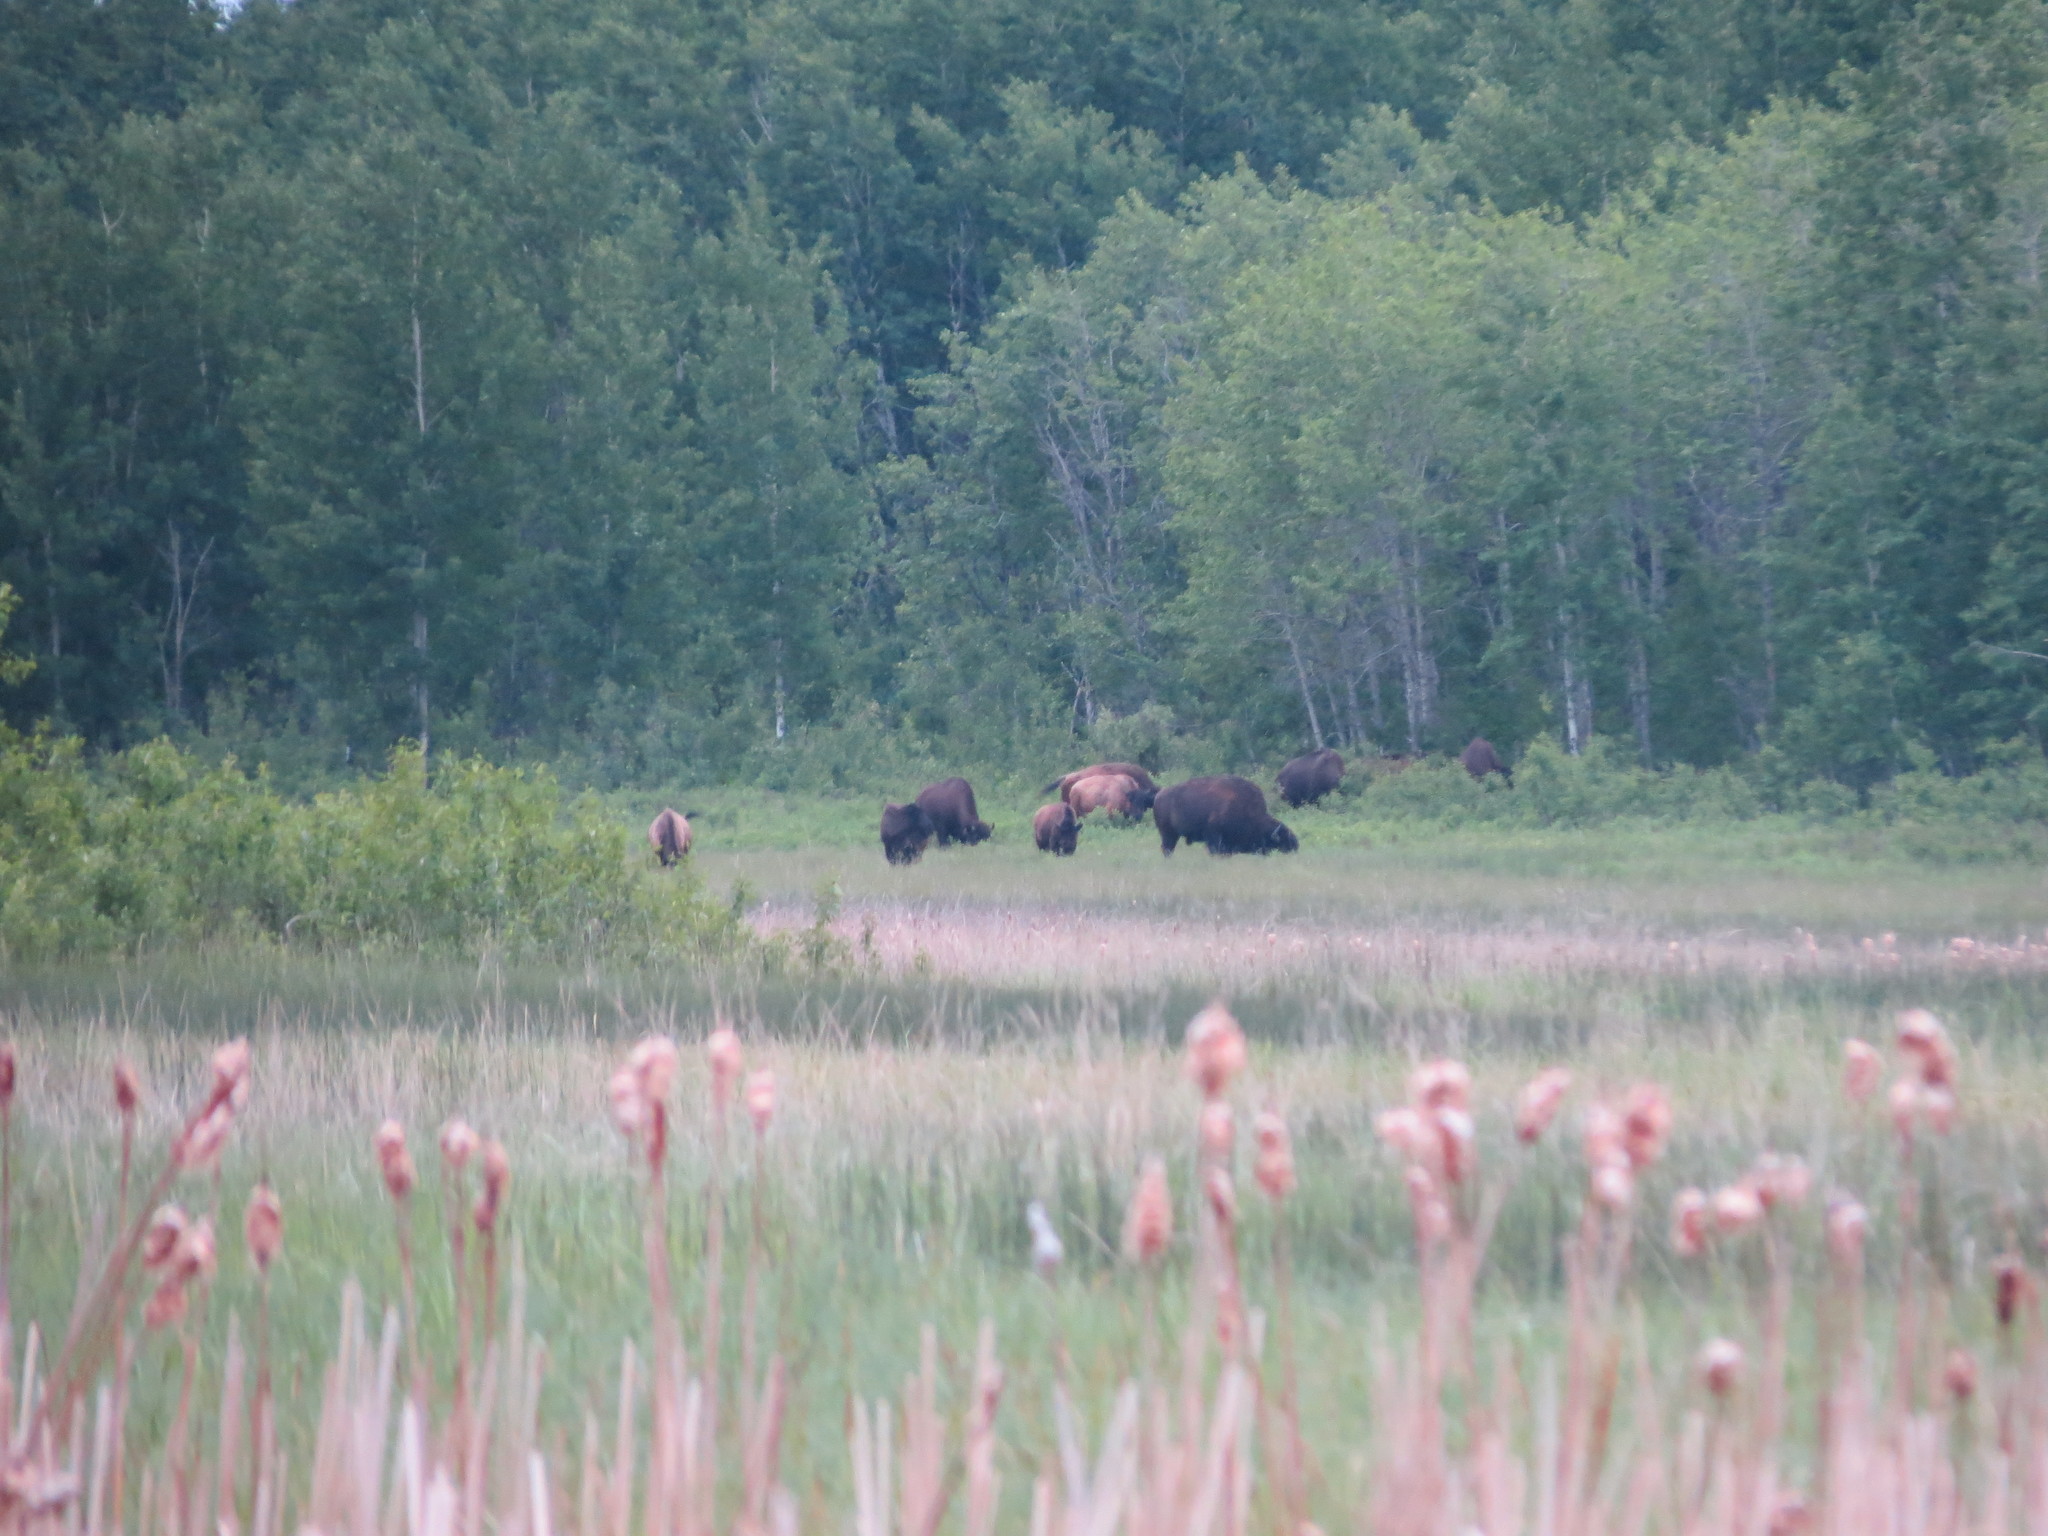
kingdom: Animalia
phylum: Chordata
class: Mammalia
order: Artiodactyla
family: Bovidae
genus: Bison
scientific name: Bison bison
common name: American bison
